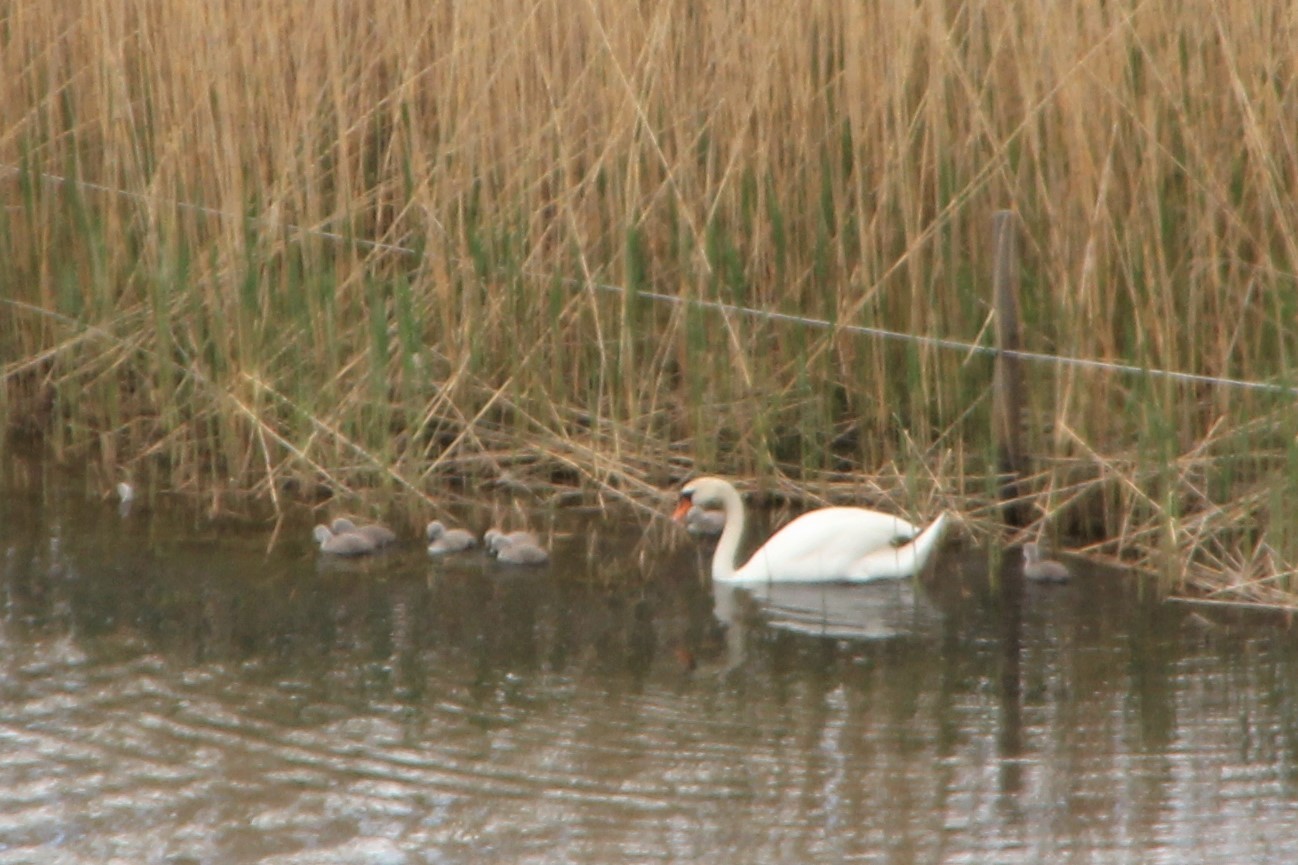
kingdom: Animalia
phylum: Chordata
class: Aves
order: Anseriformes
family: Anatidae
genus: Cygnus
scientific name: Cygnus olor
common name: Mute swan
